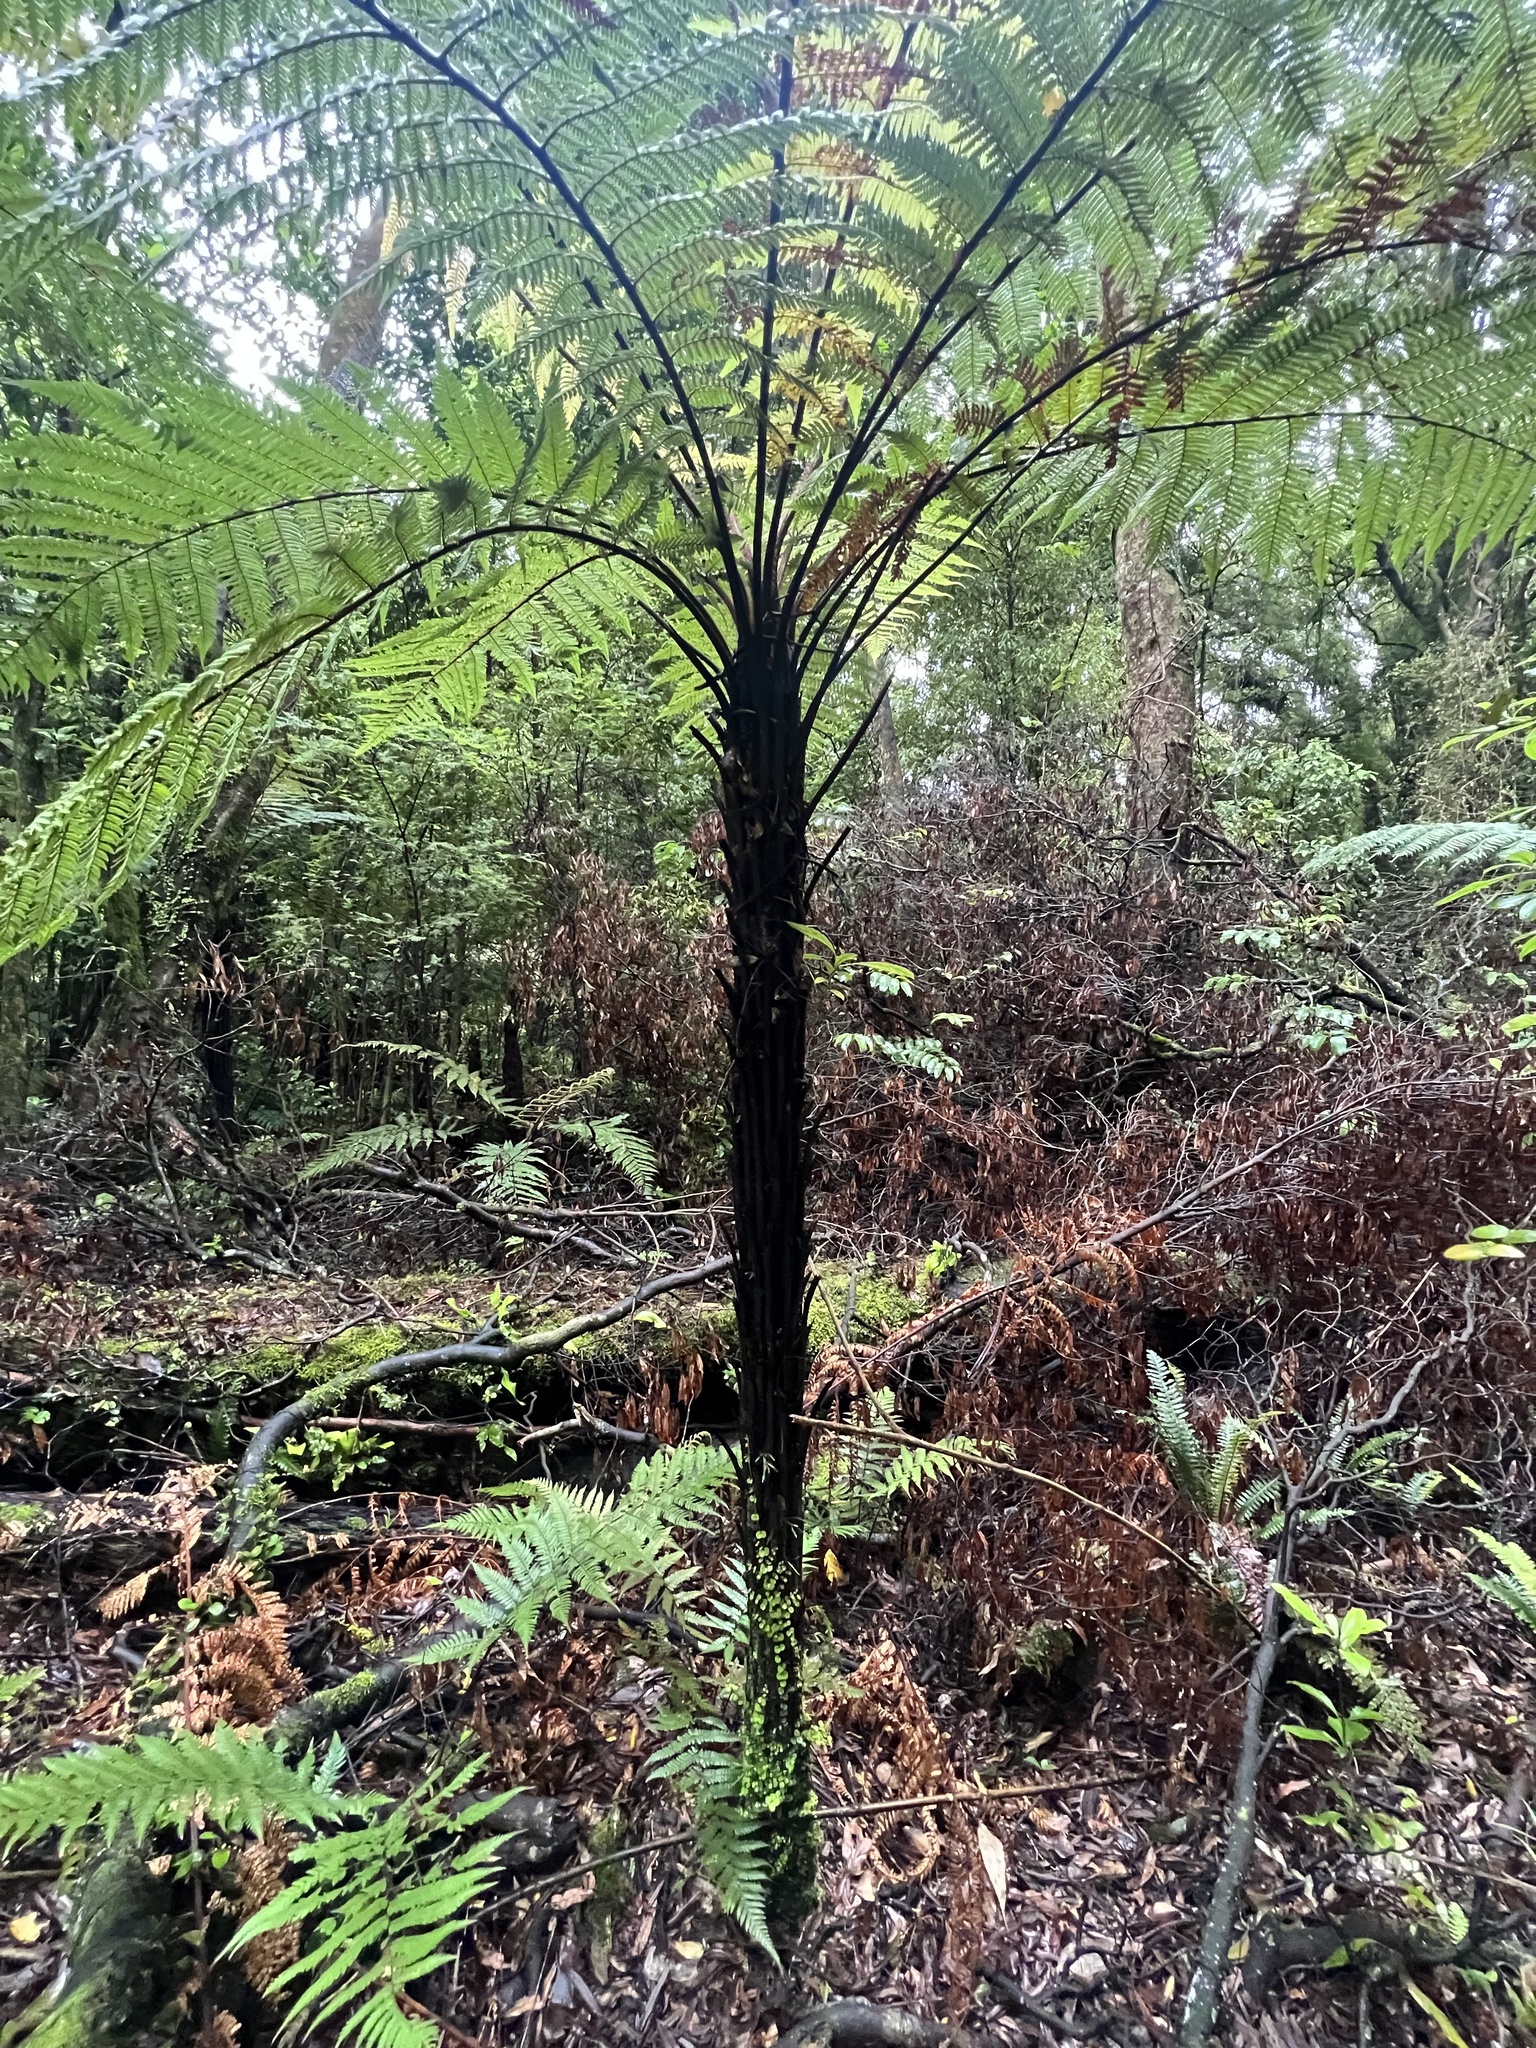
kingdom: Plantae
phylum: Tracheophyta
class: Polypodiopsida
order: Cyatheales
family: Dicksoniaceae
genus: Dicksonia
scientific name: Dicksonia squarrosa
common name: Hard treefern
